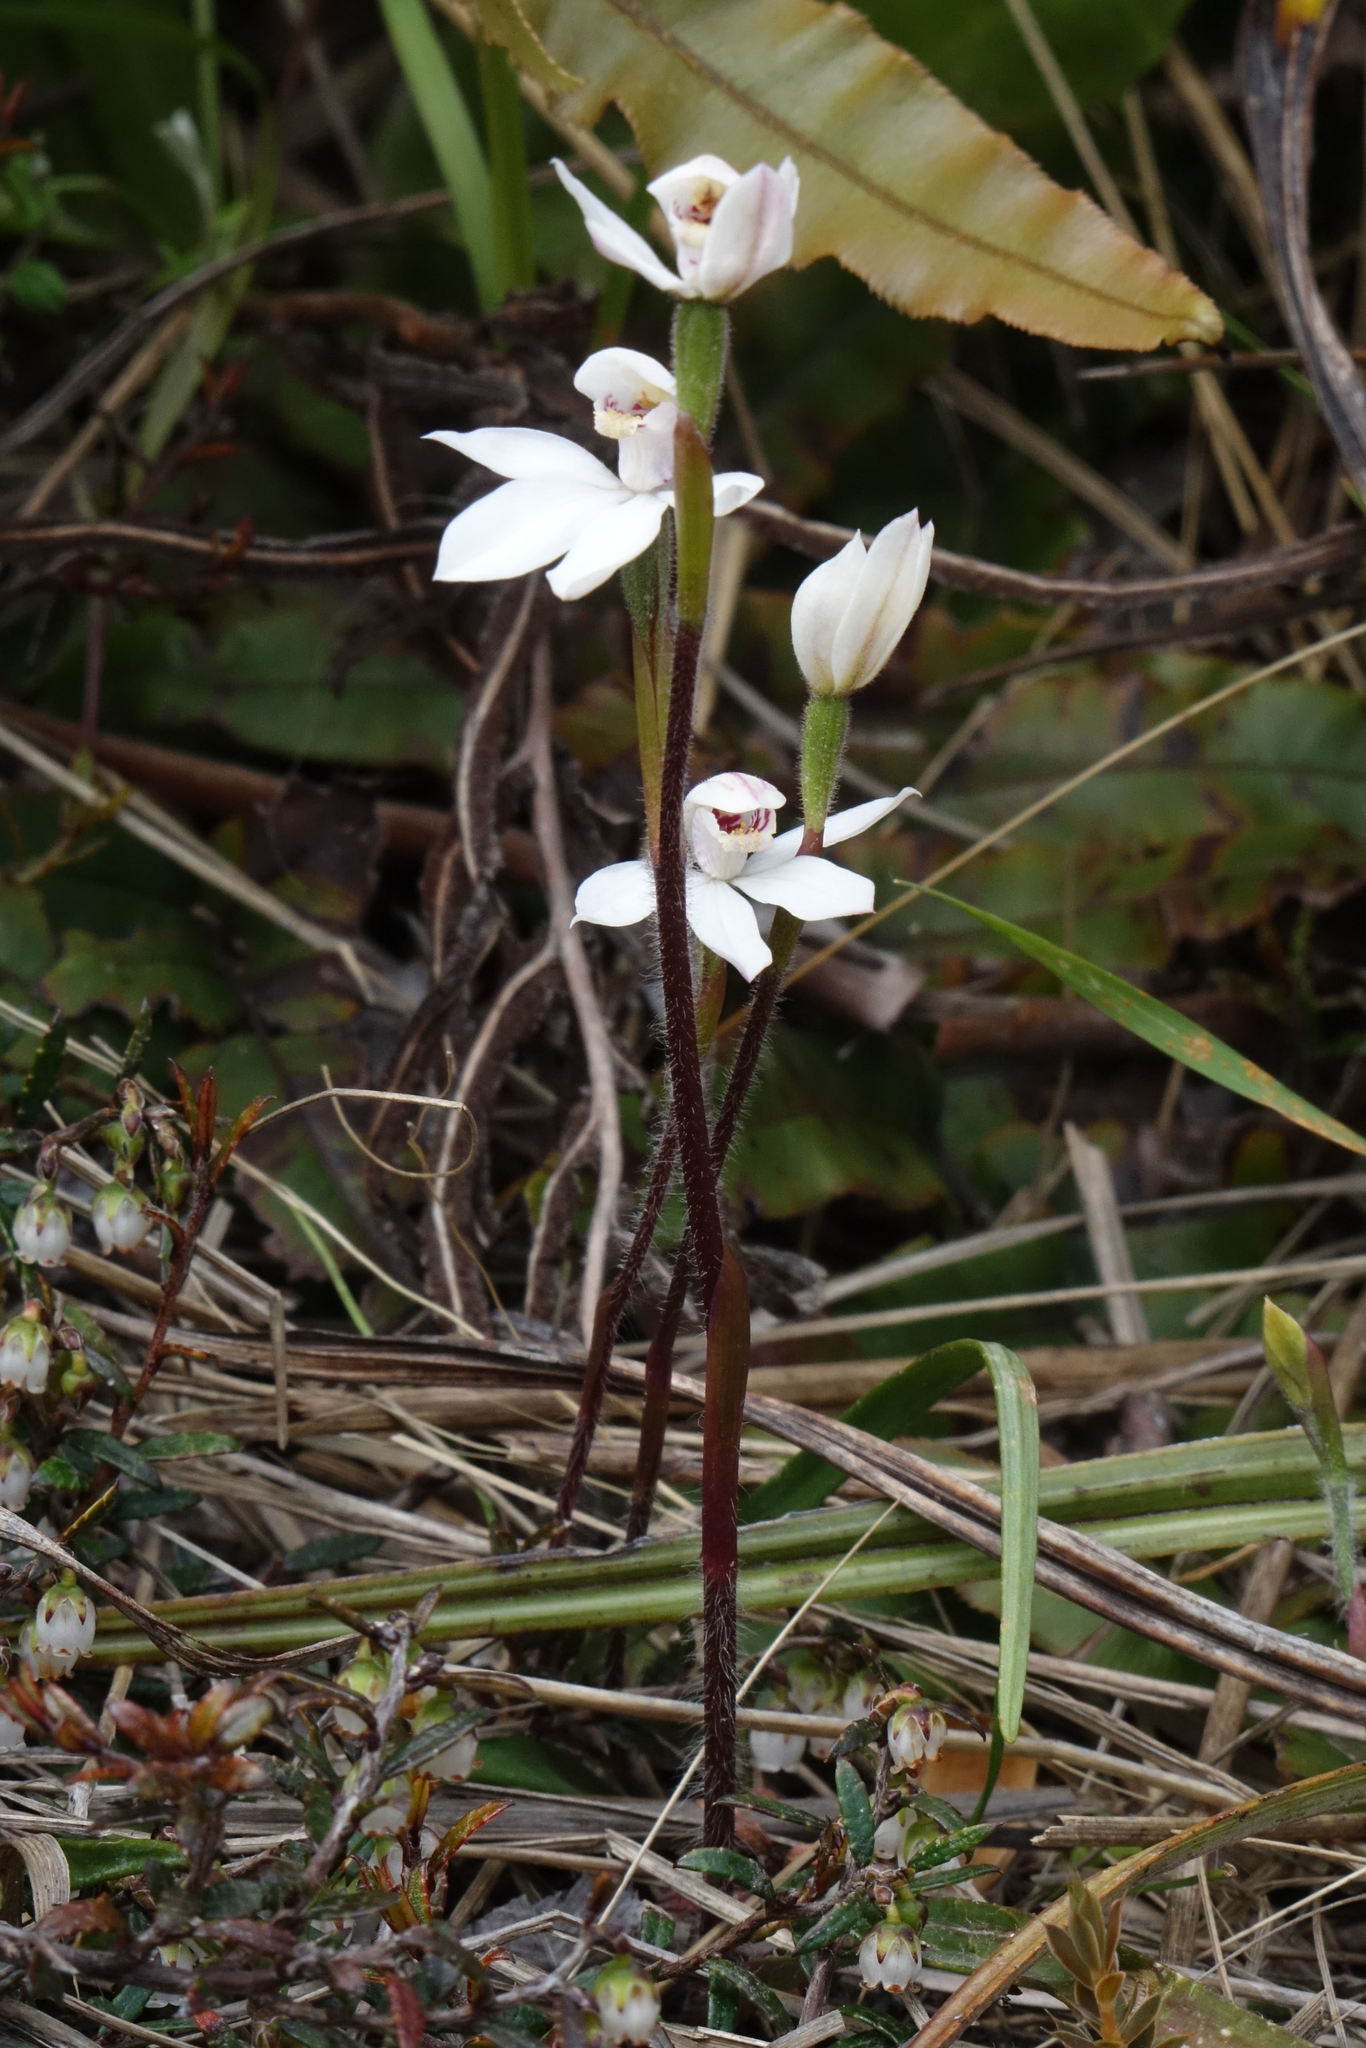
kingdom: Plantae
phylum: Tracheophyta
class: Liliopsida
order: Asparagales
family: Orchidaceae
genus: Caladenia
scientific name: Caladenia lyallii
